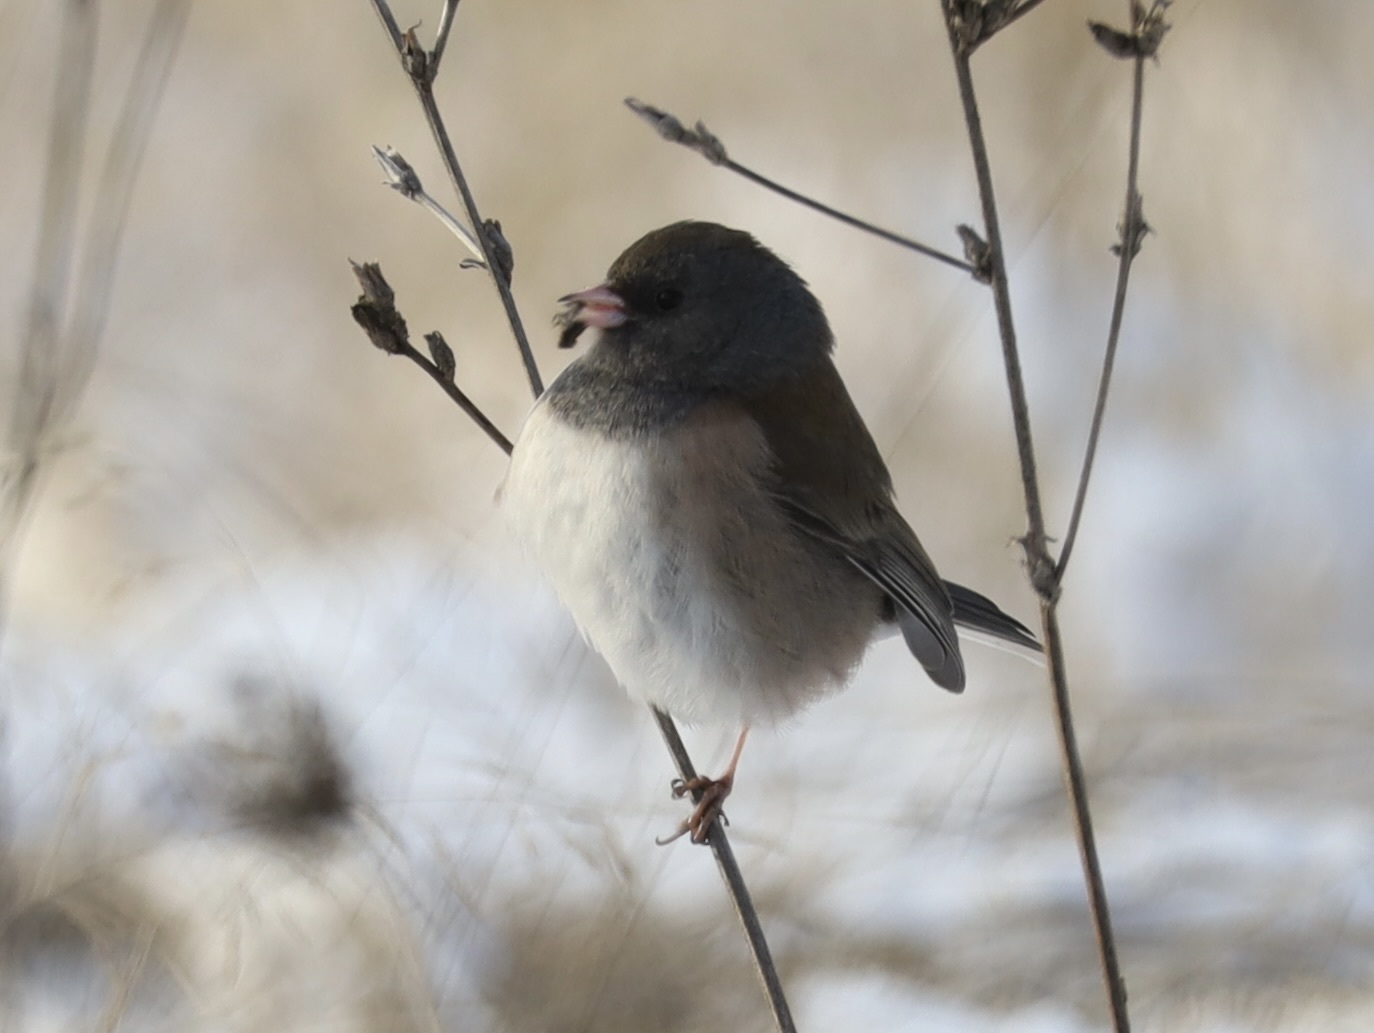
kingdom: Animalia
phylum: Chordata
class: Aves
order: Passeriformes
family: Passerellidae
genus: Junco
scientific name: Junco hyemalis
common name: Dark-eyed junco
